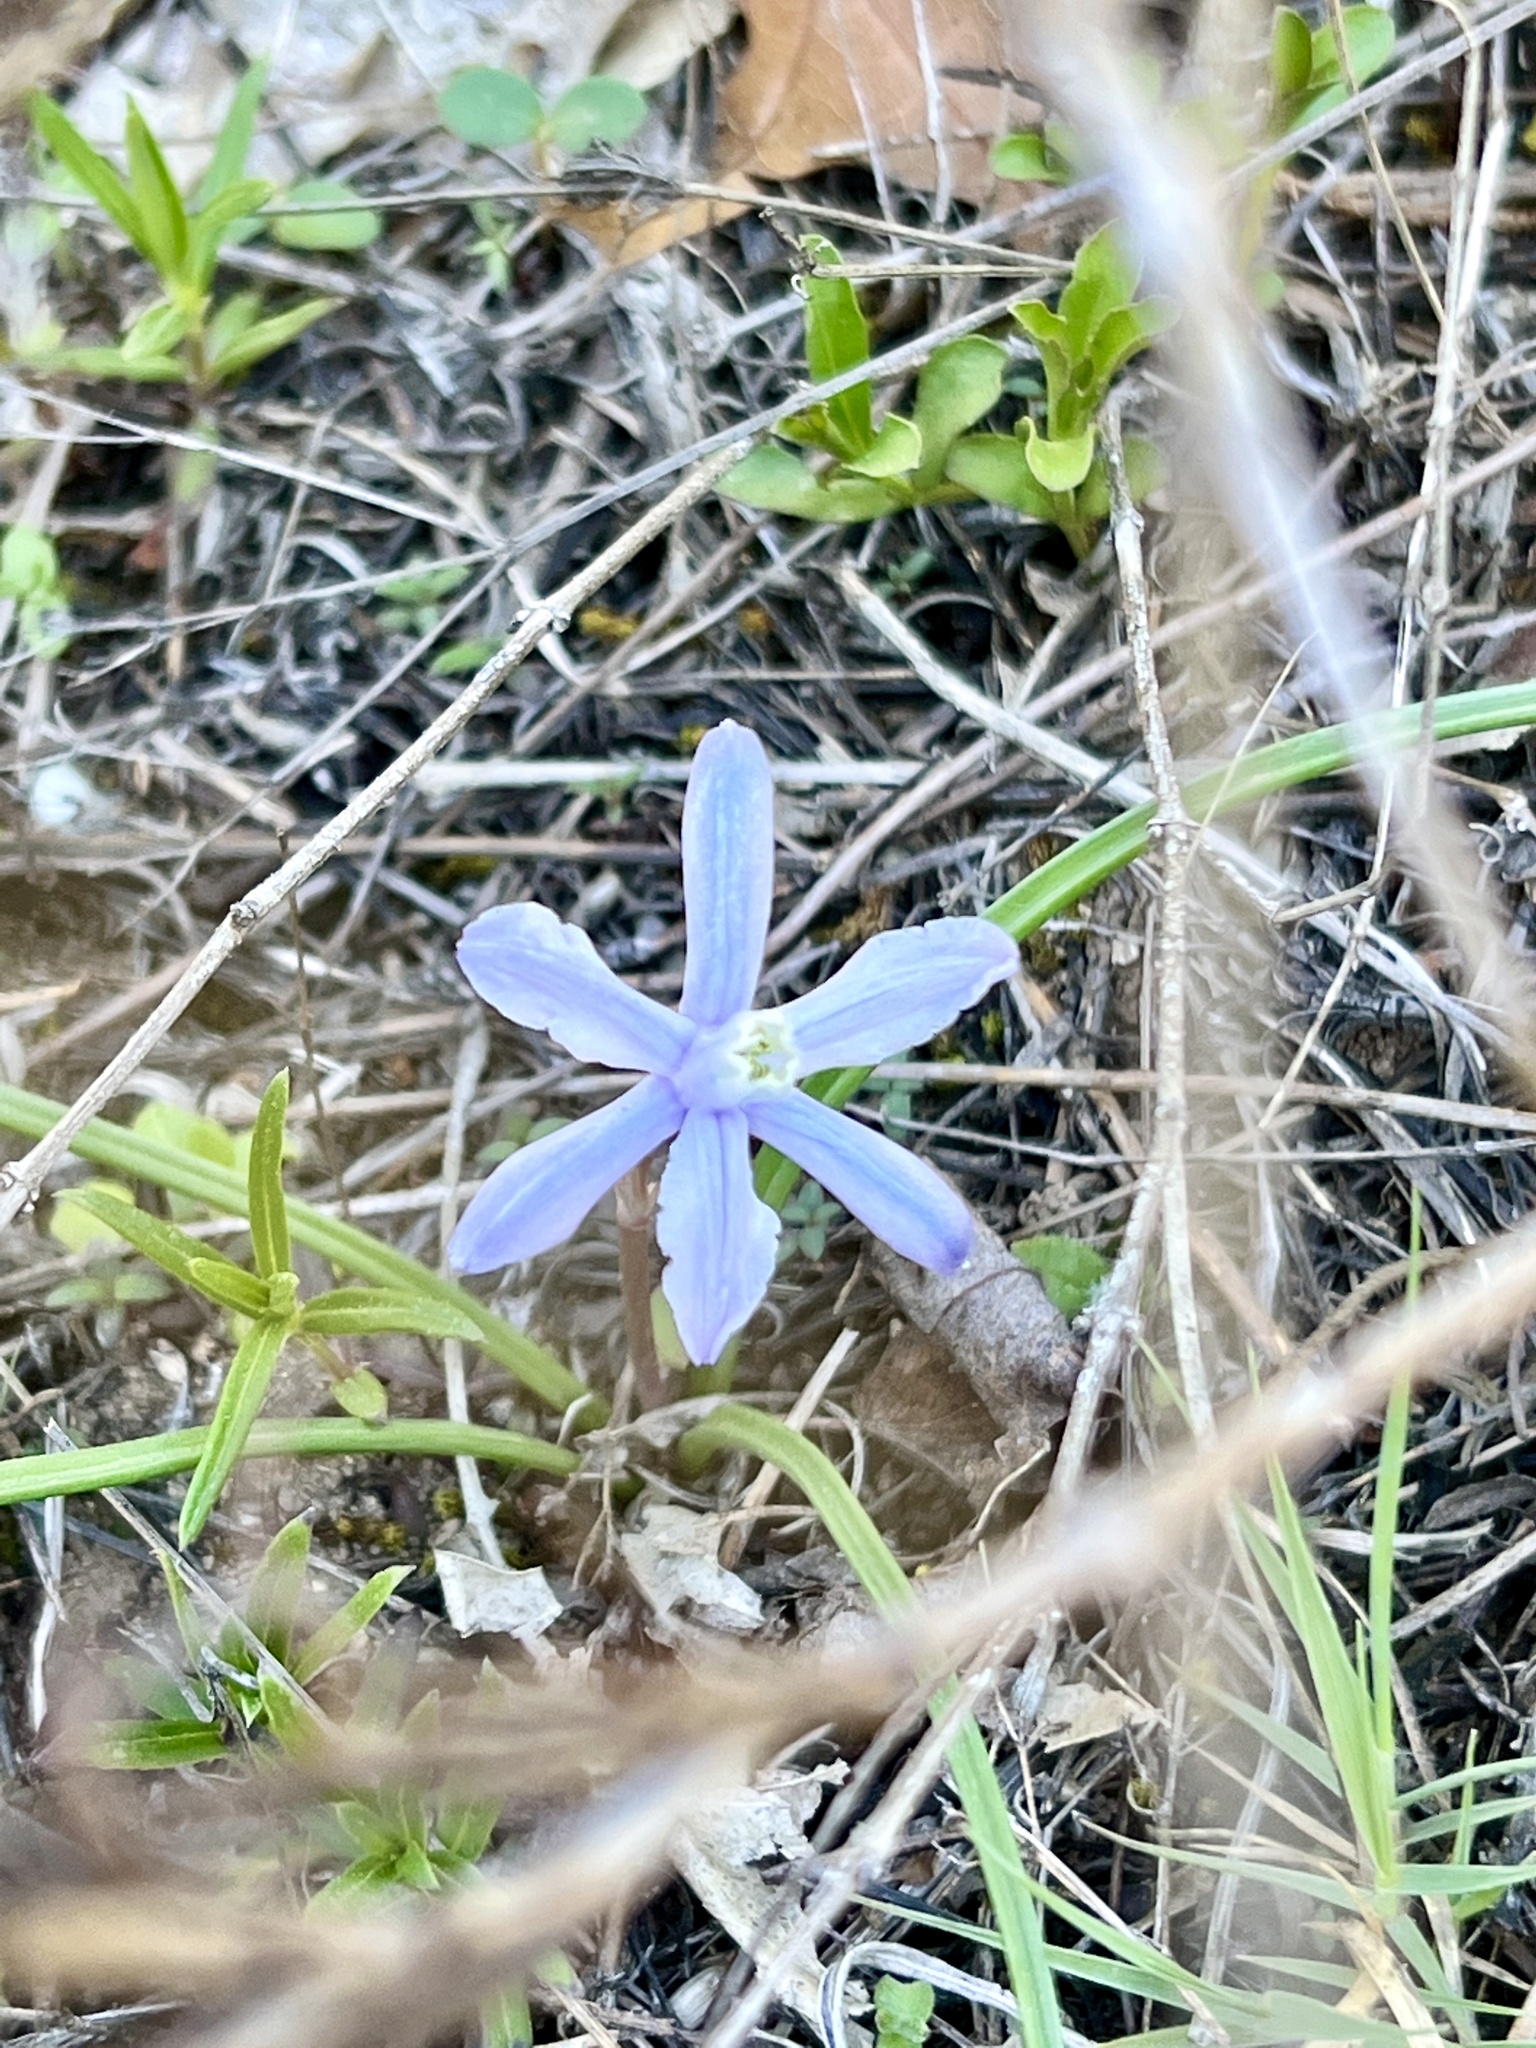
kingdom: Plantae
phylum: Tracheophyta
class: Liliopsida
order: Asparagales
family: Asparagaceae
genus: Androstephium
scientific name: Androstephium coeruleum
